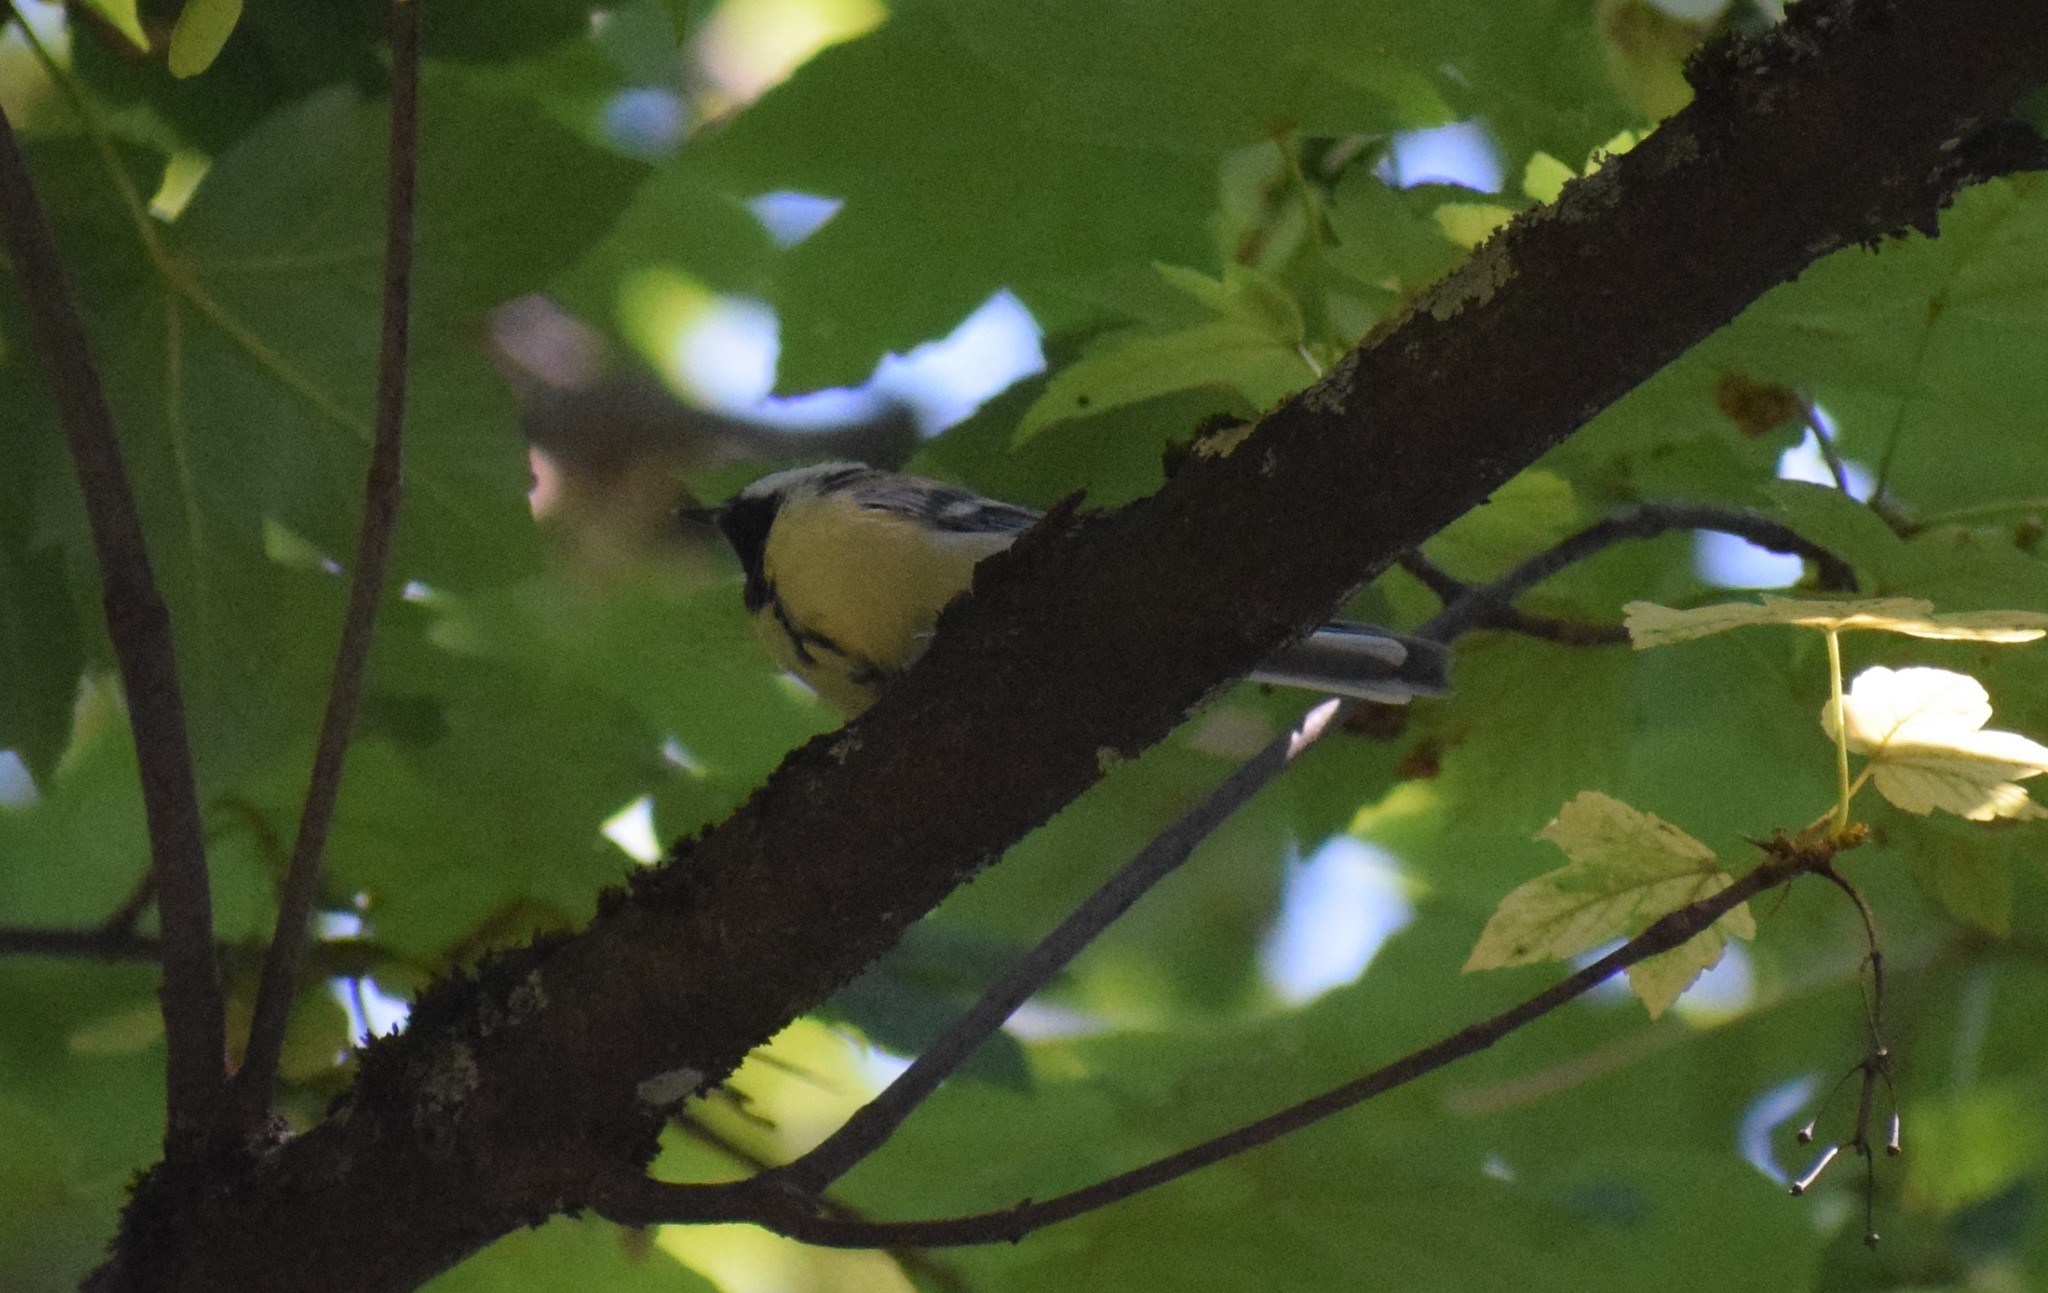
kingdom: Animalia
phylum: Chordata
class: Aves
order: Passeriformes
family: Paridae
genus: Parus
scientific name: Parus major
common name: Great tit
